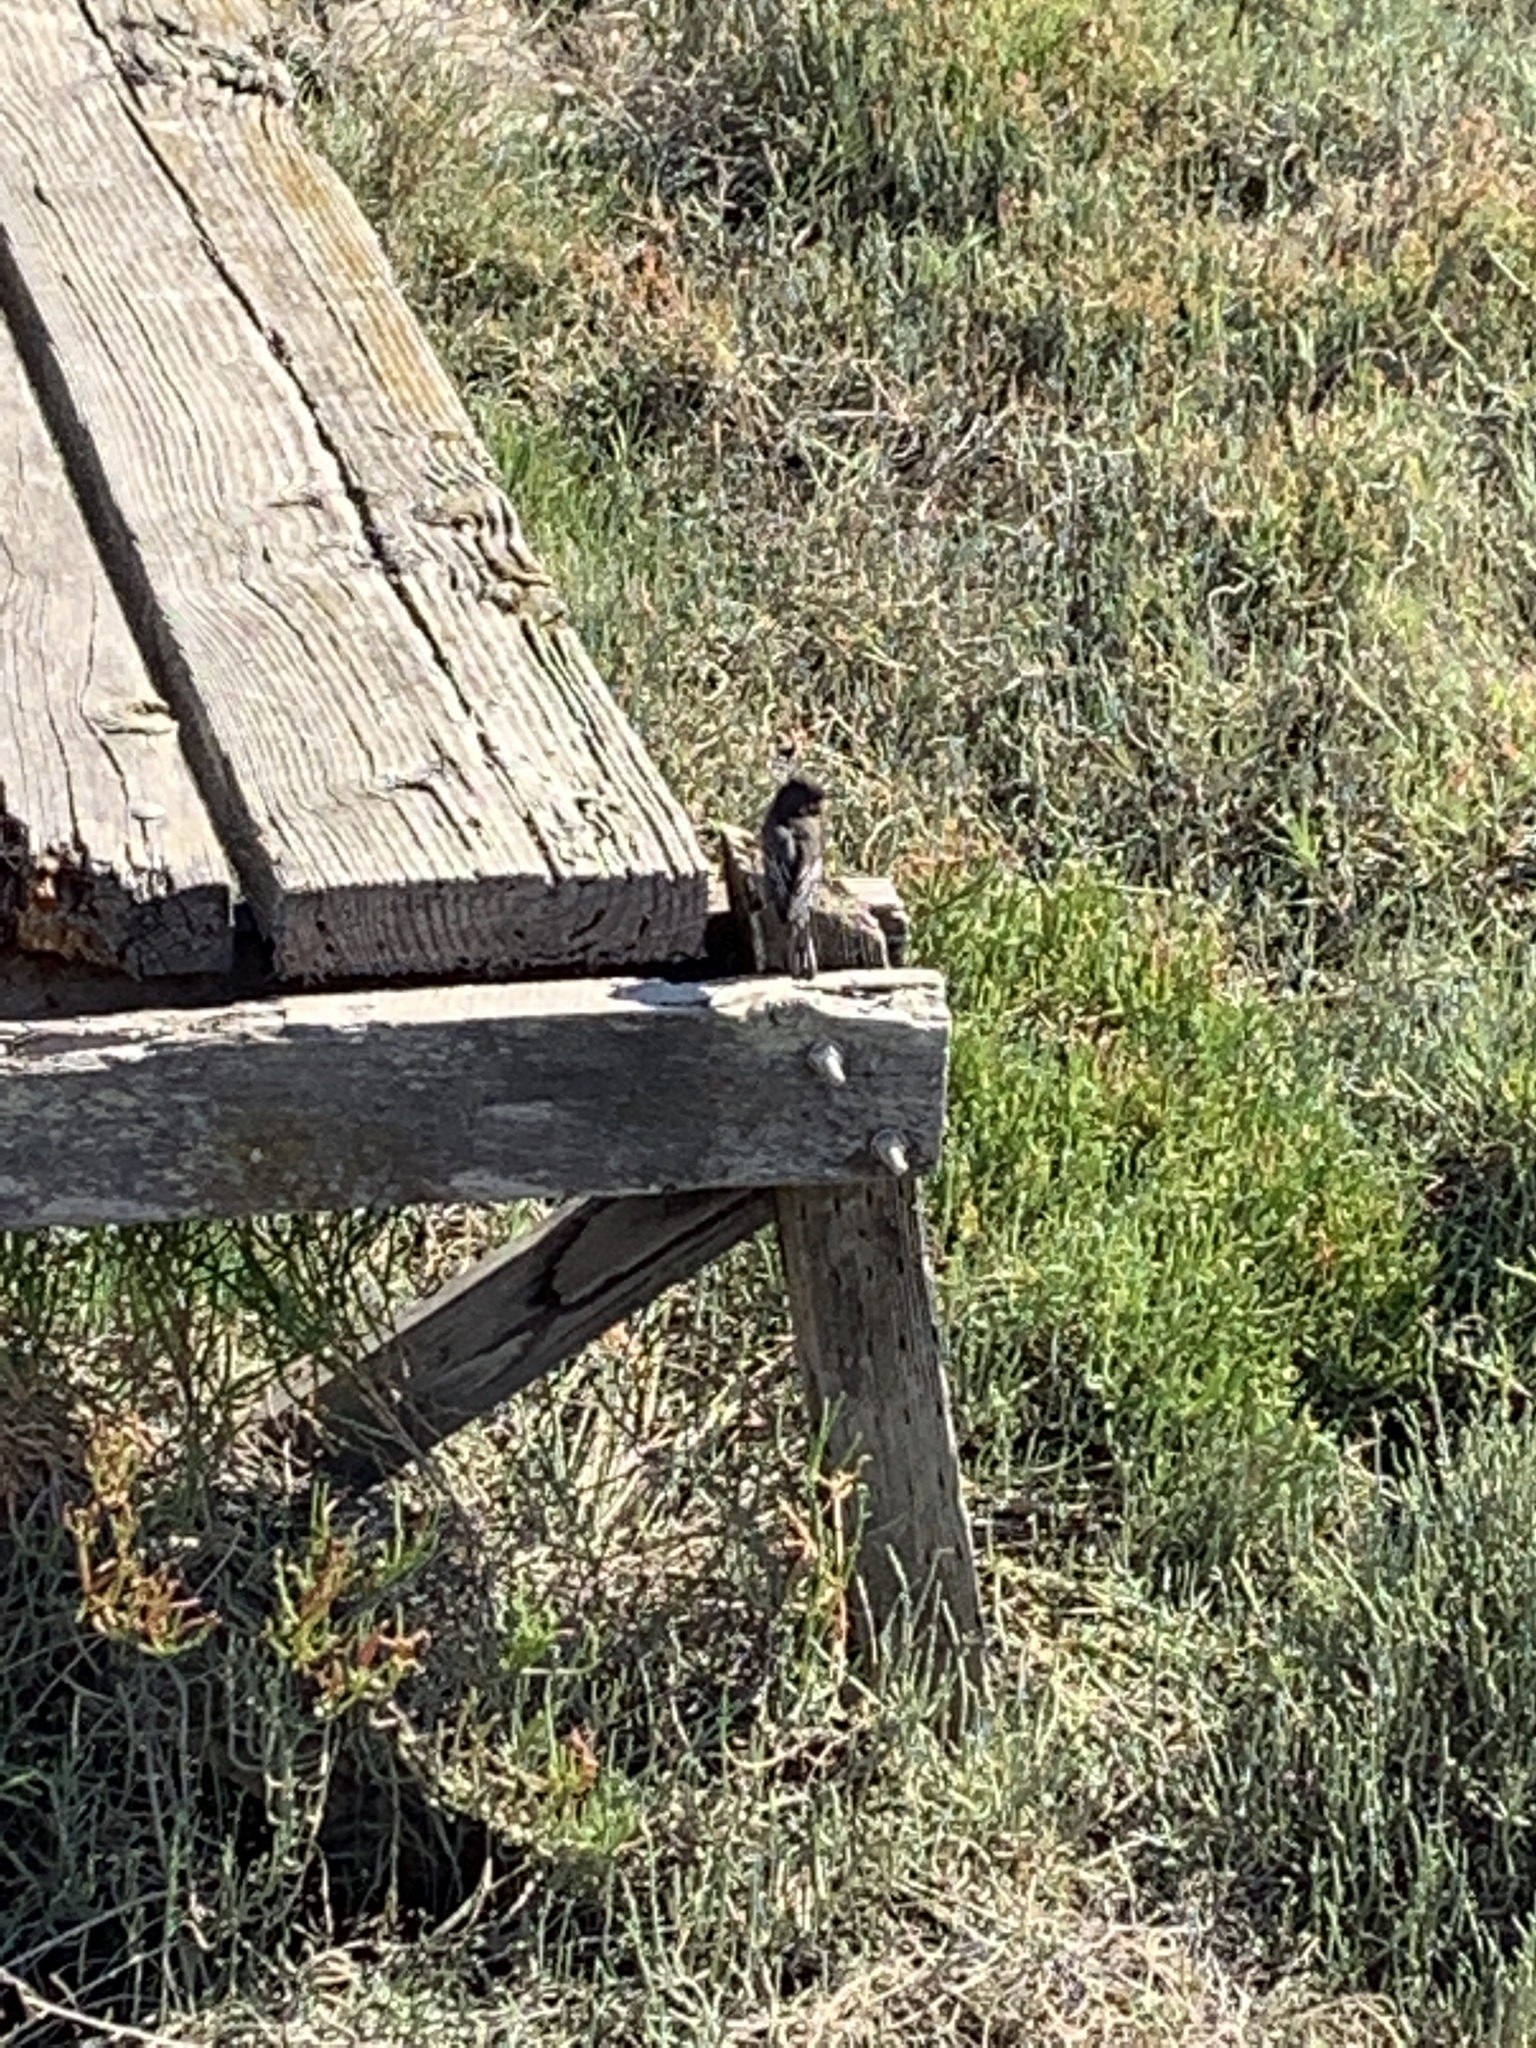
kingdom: Animalia
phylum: Chordata
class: Aves
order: Passeriformes
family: Tyrannidae
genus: Sayornis
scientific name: Sayornis nigricans
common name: Black phoebe
